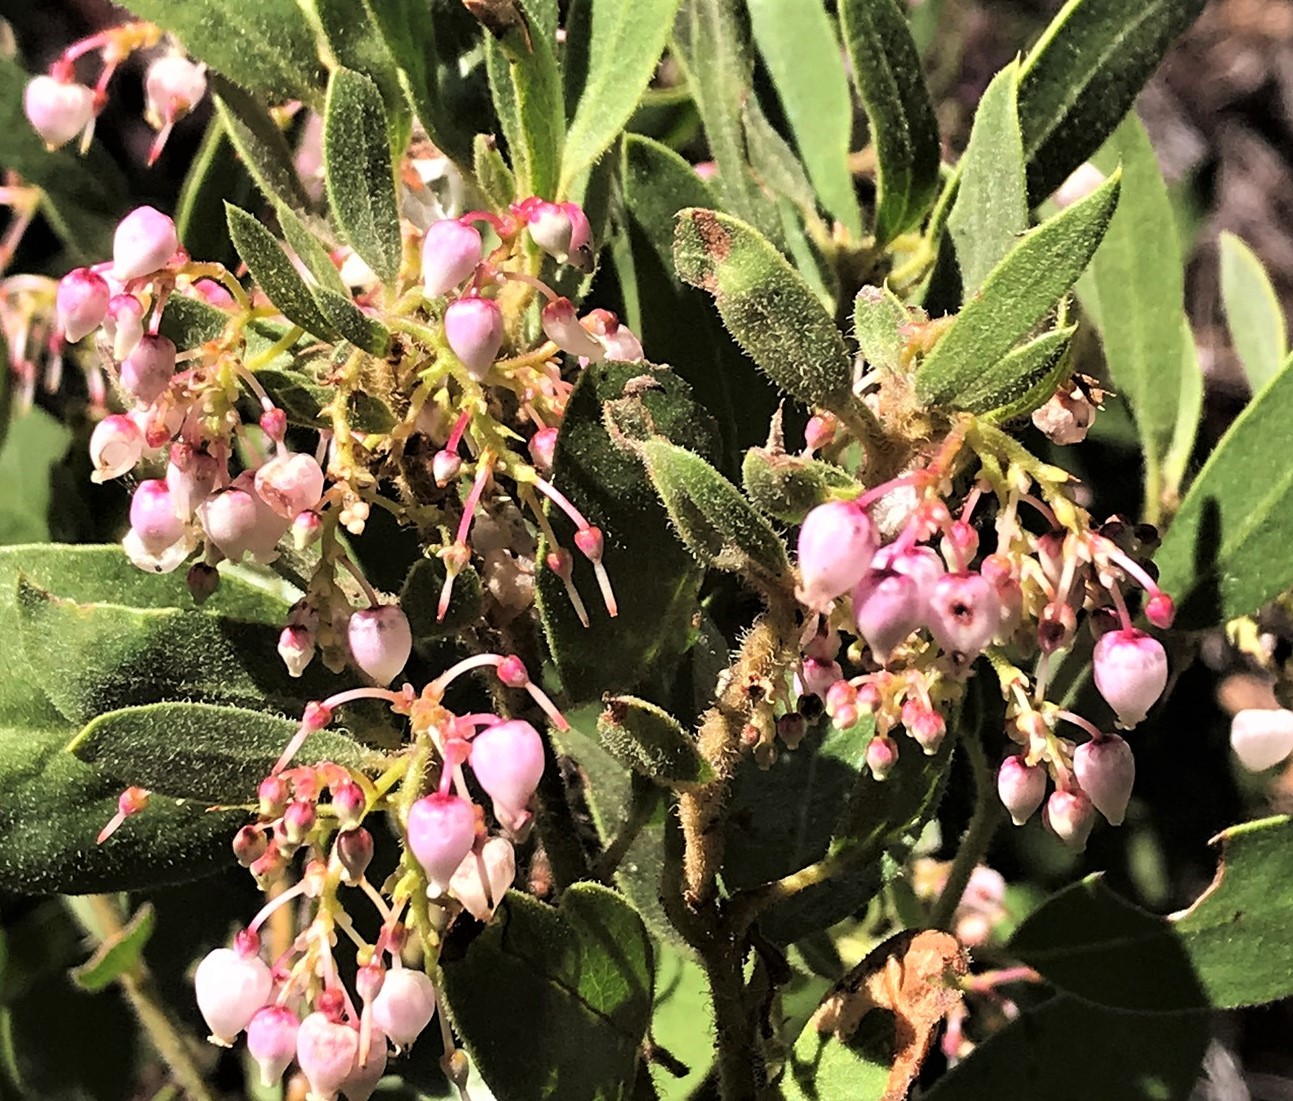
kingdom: Plantae
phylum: Tracheophyta
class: Magnoliopsida
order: Ericales
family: Ericaceae
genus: Arctostaphylos
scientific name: Arctostaphylos hispidula
